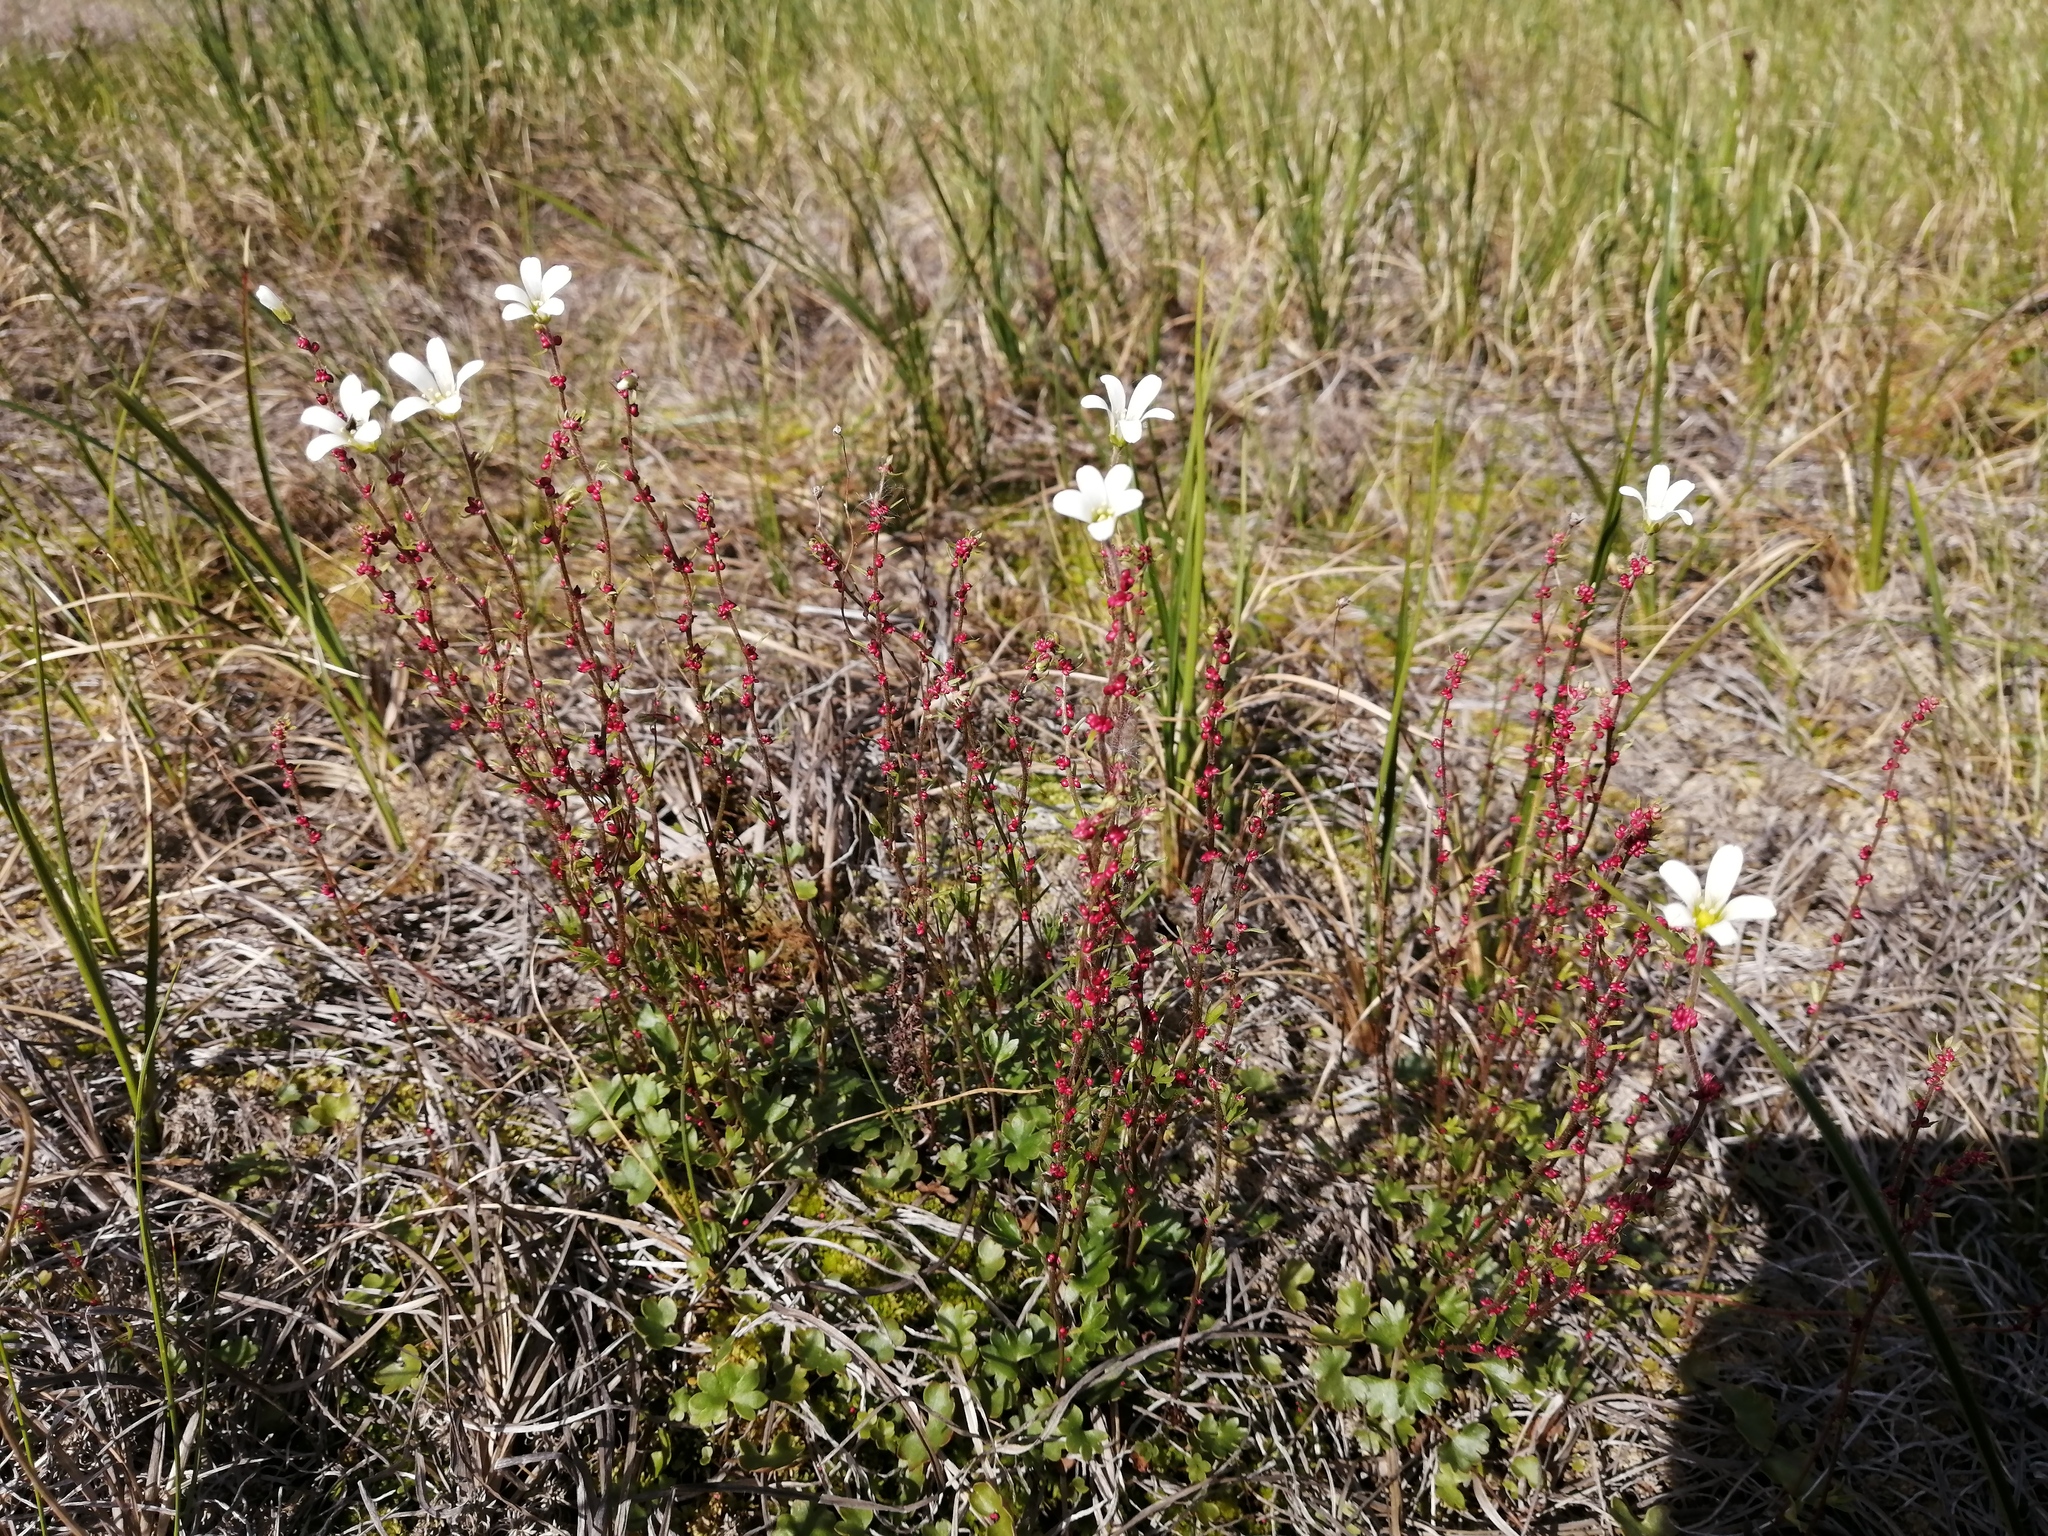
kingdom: Plantae
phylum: Tracheophyta
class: Magnoliopsida
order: Saxifragales
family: Saxifragaceae
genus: Saxifraga
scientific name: Saxifraga cernua
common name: Drooping saxifrage
